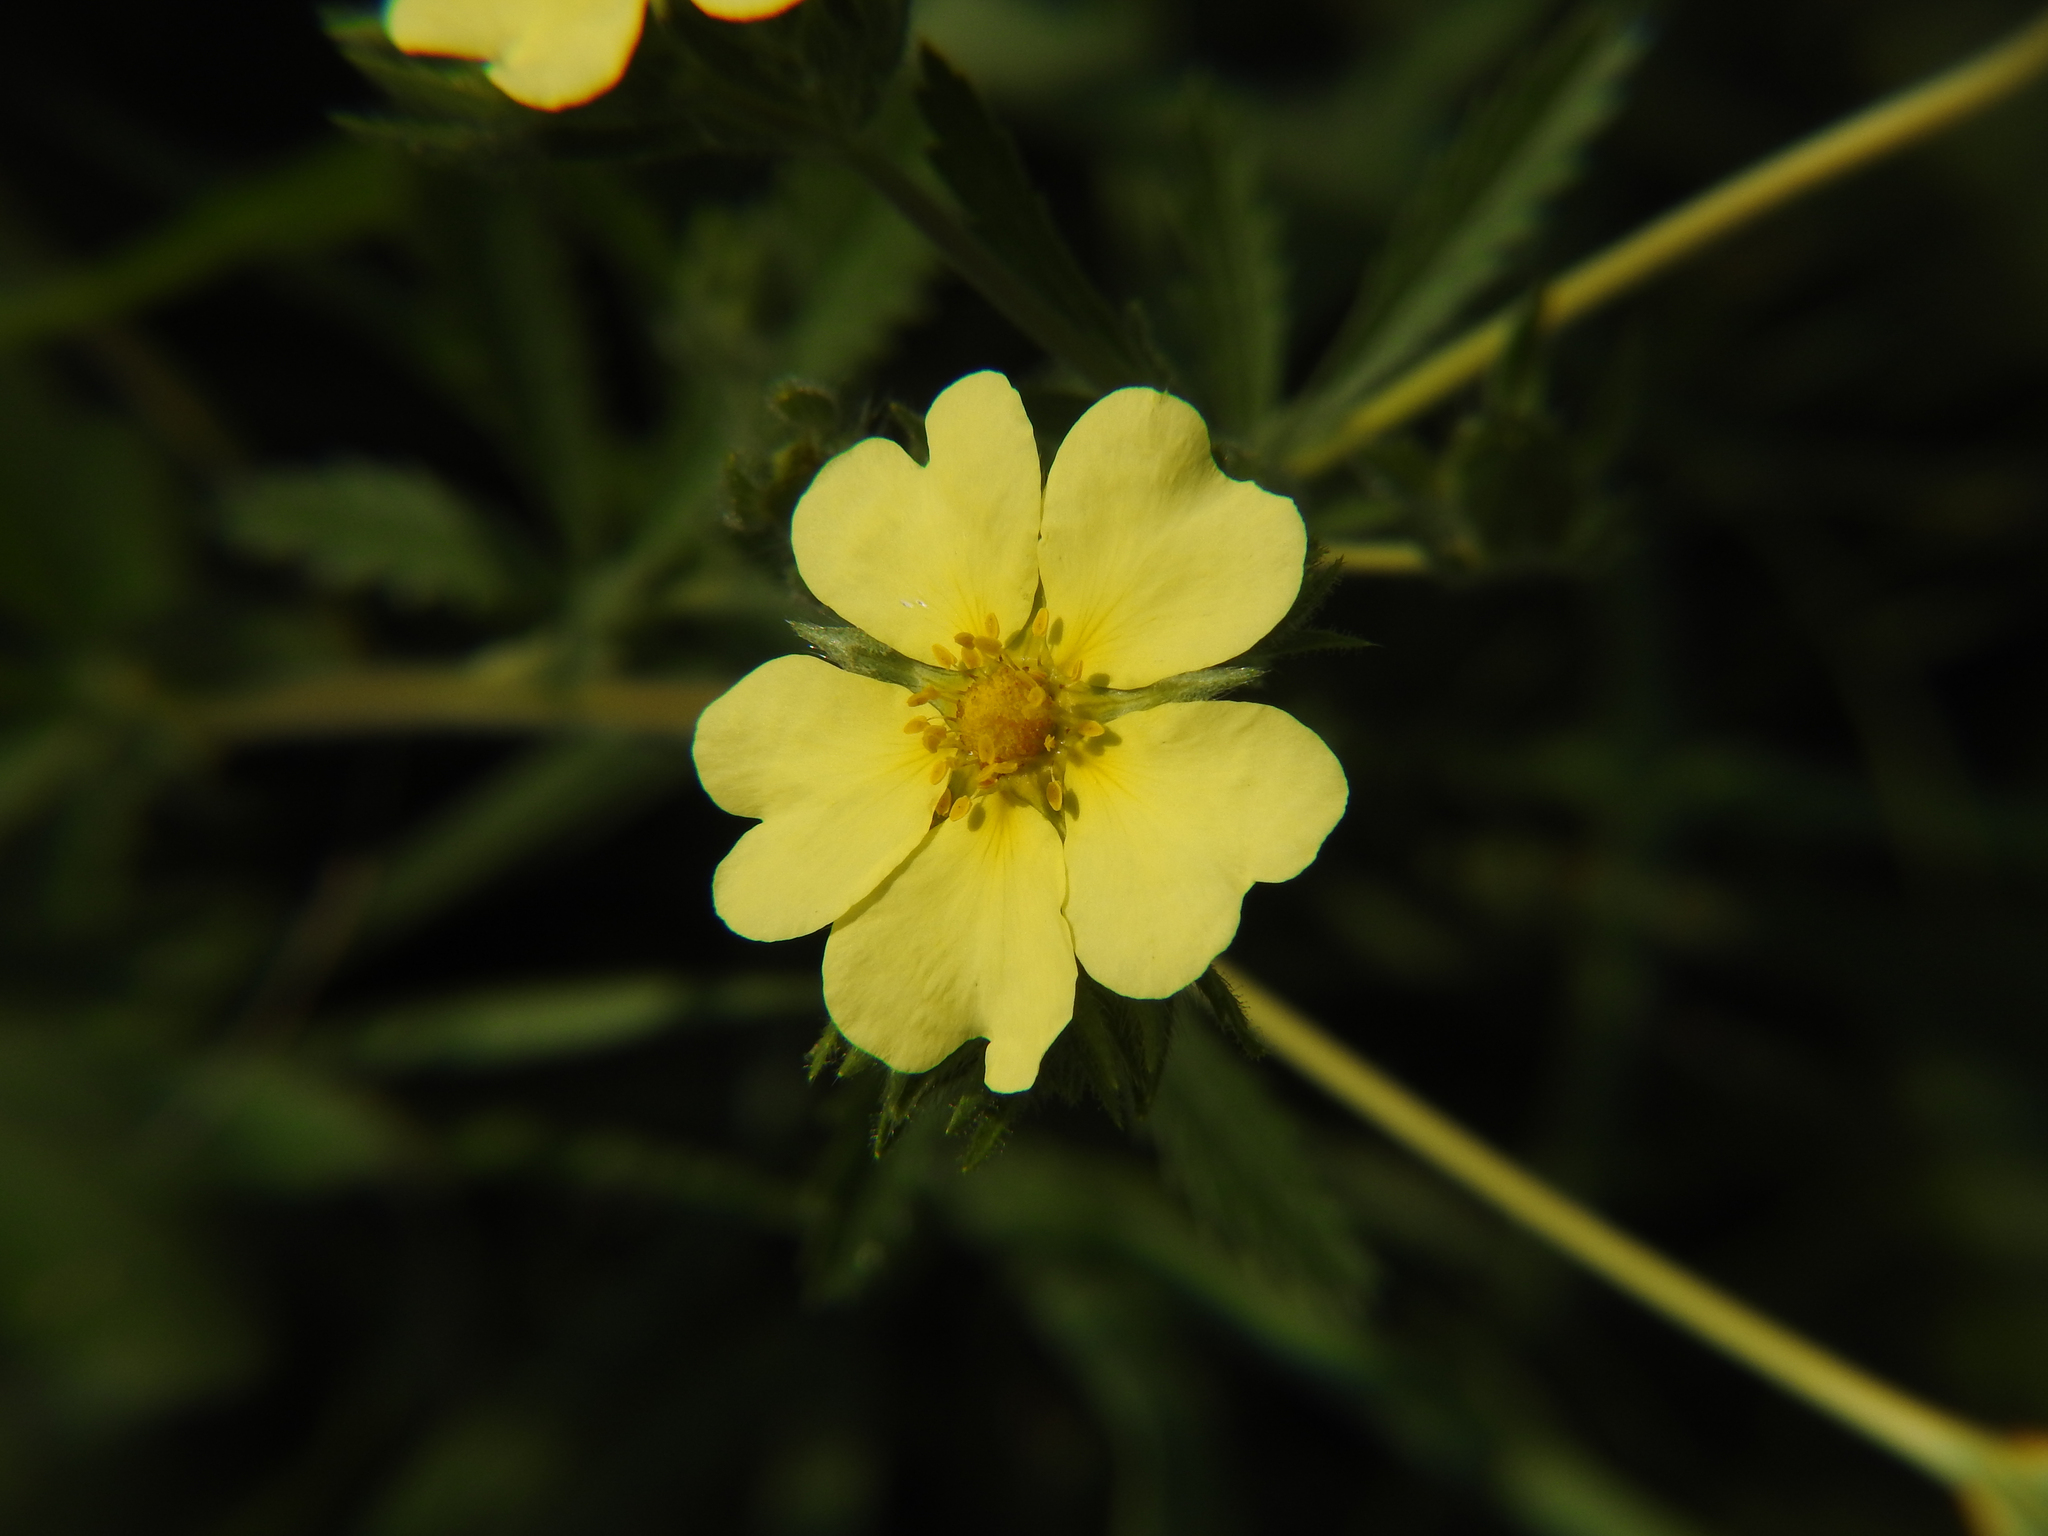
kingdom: Plantae
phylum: Tracheophyta
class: Magnoliopsida
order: Rosales
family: Rosaceae
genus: Potentilla
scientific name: Potentilla recta
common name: Sulphur cinquefoil
